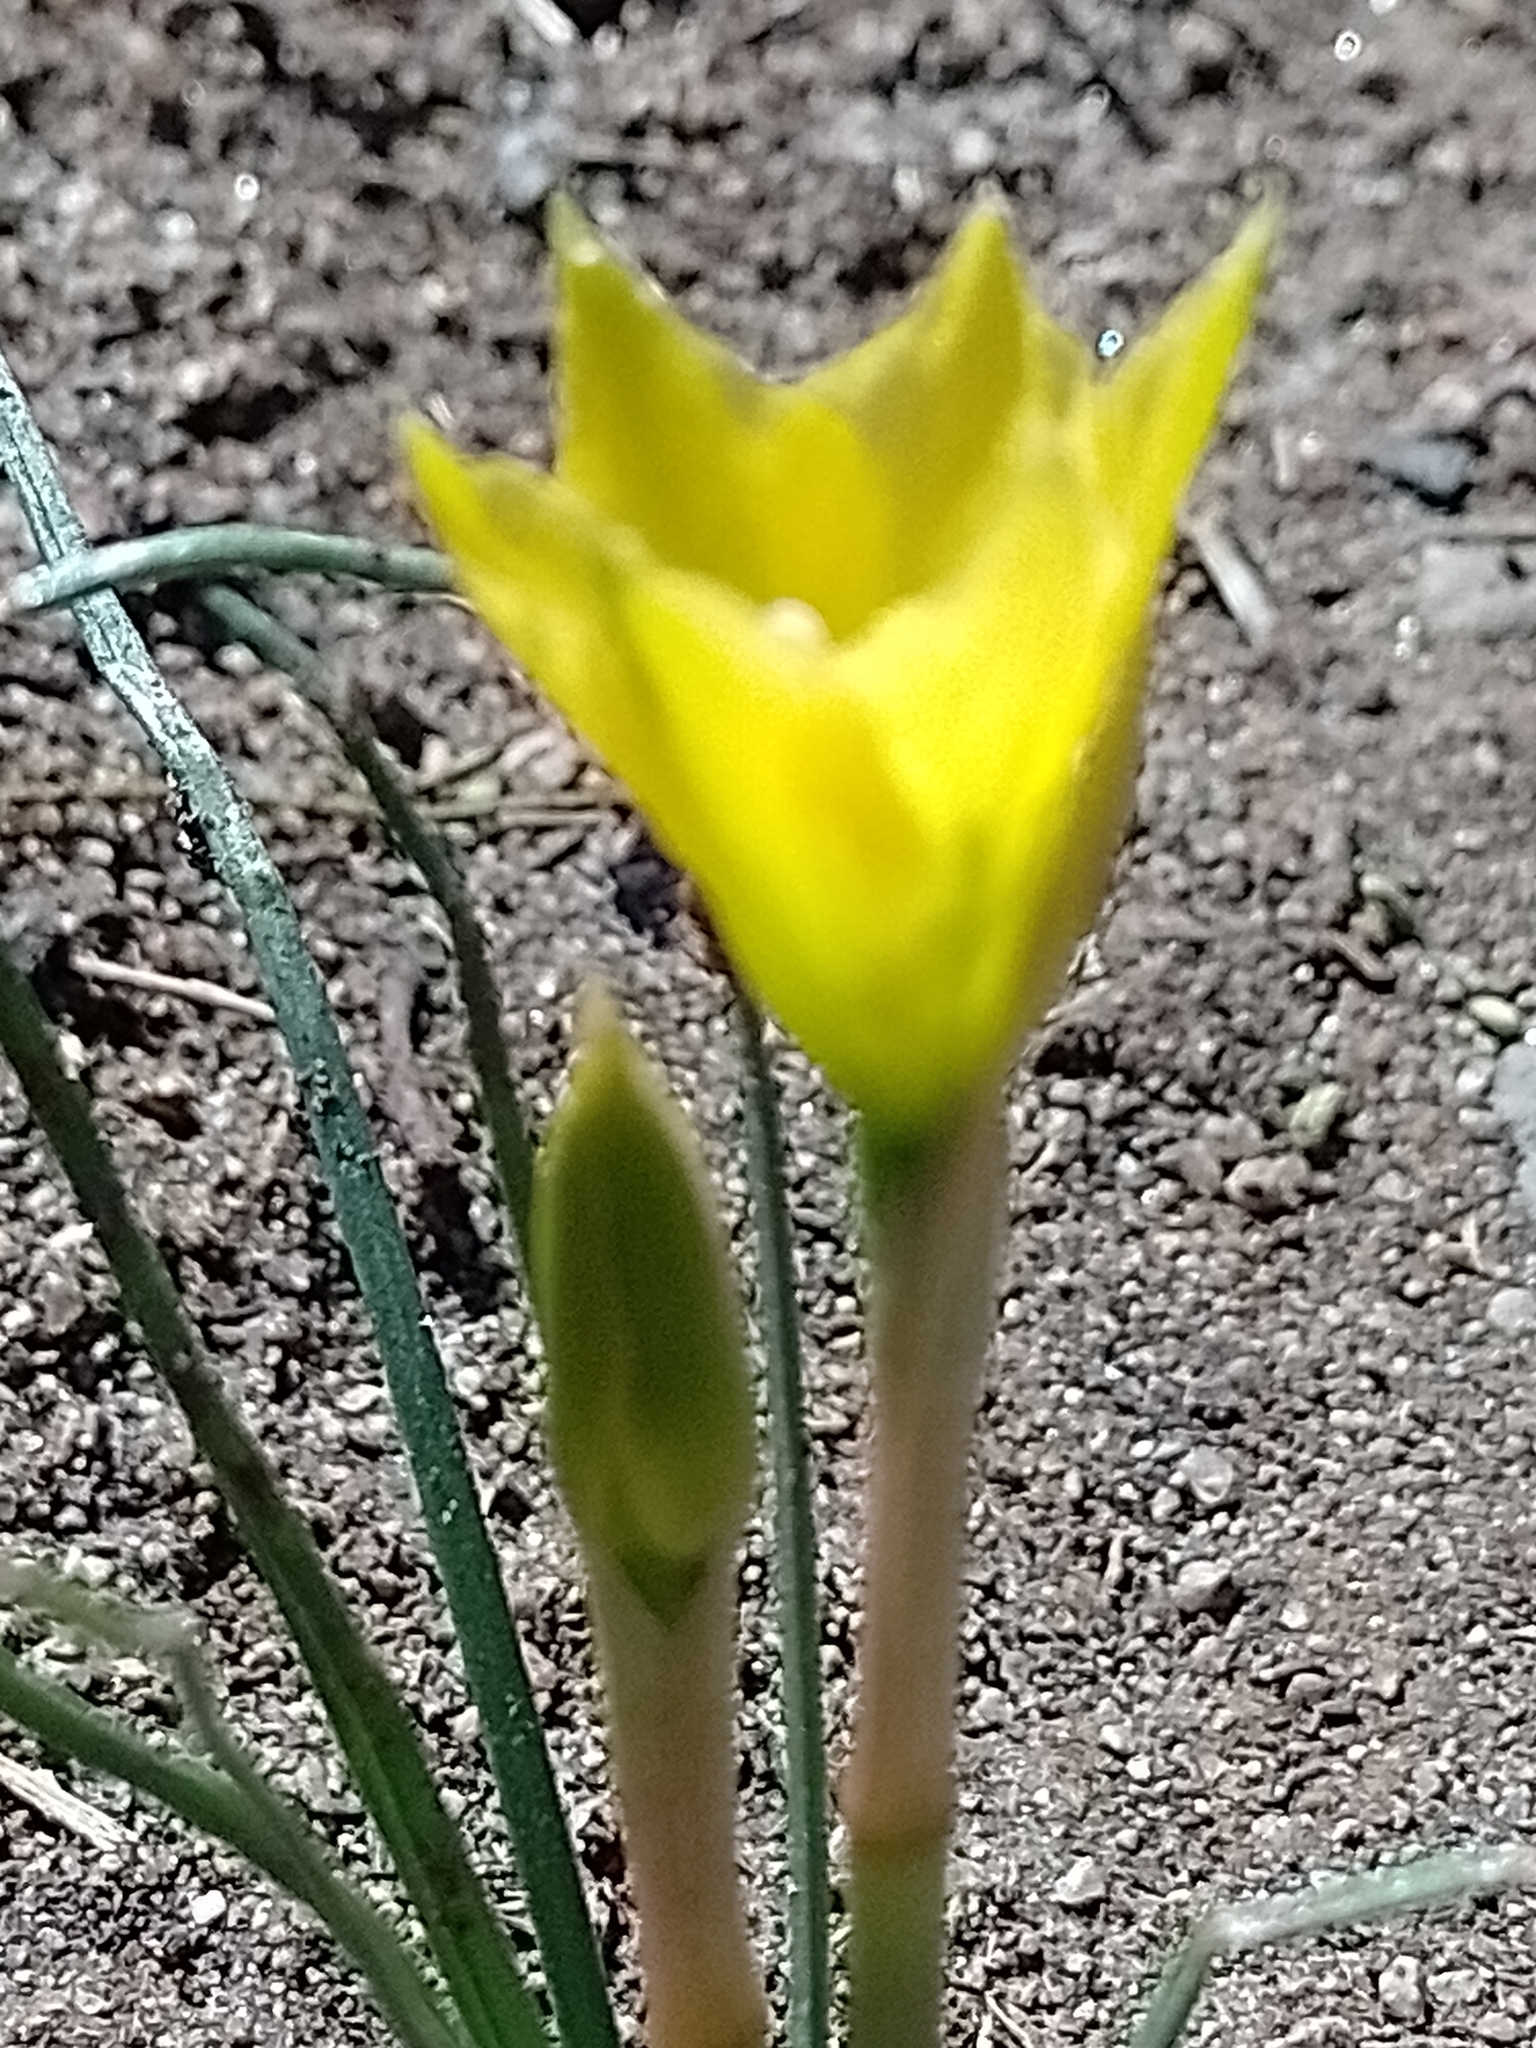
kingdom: Plantae
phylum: Tracheophyta
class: Liliopsida
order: Asparagales
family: Amaryllidaceae
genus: Zephyranthes
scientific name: Zephyranthes filifolia
